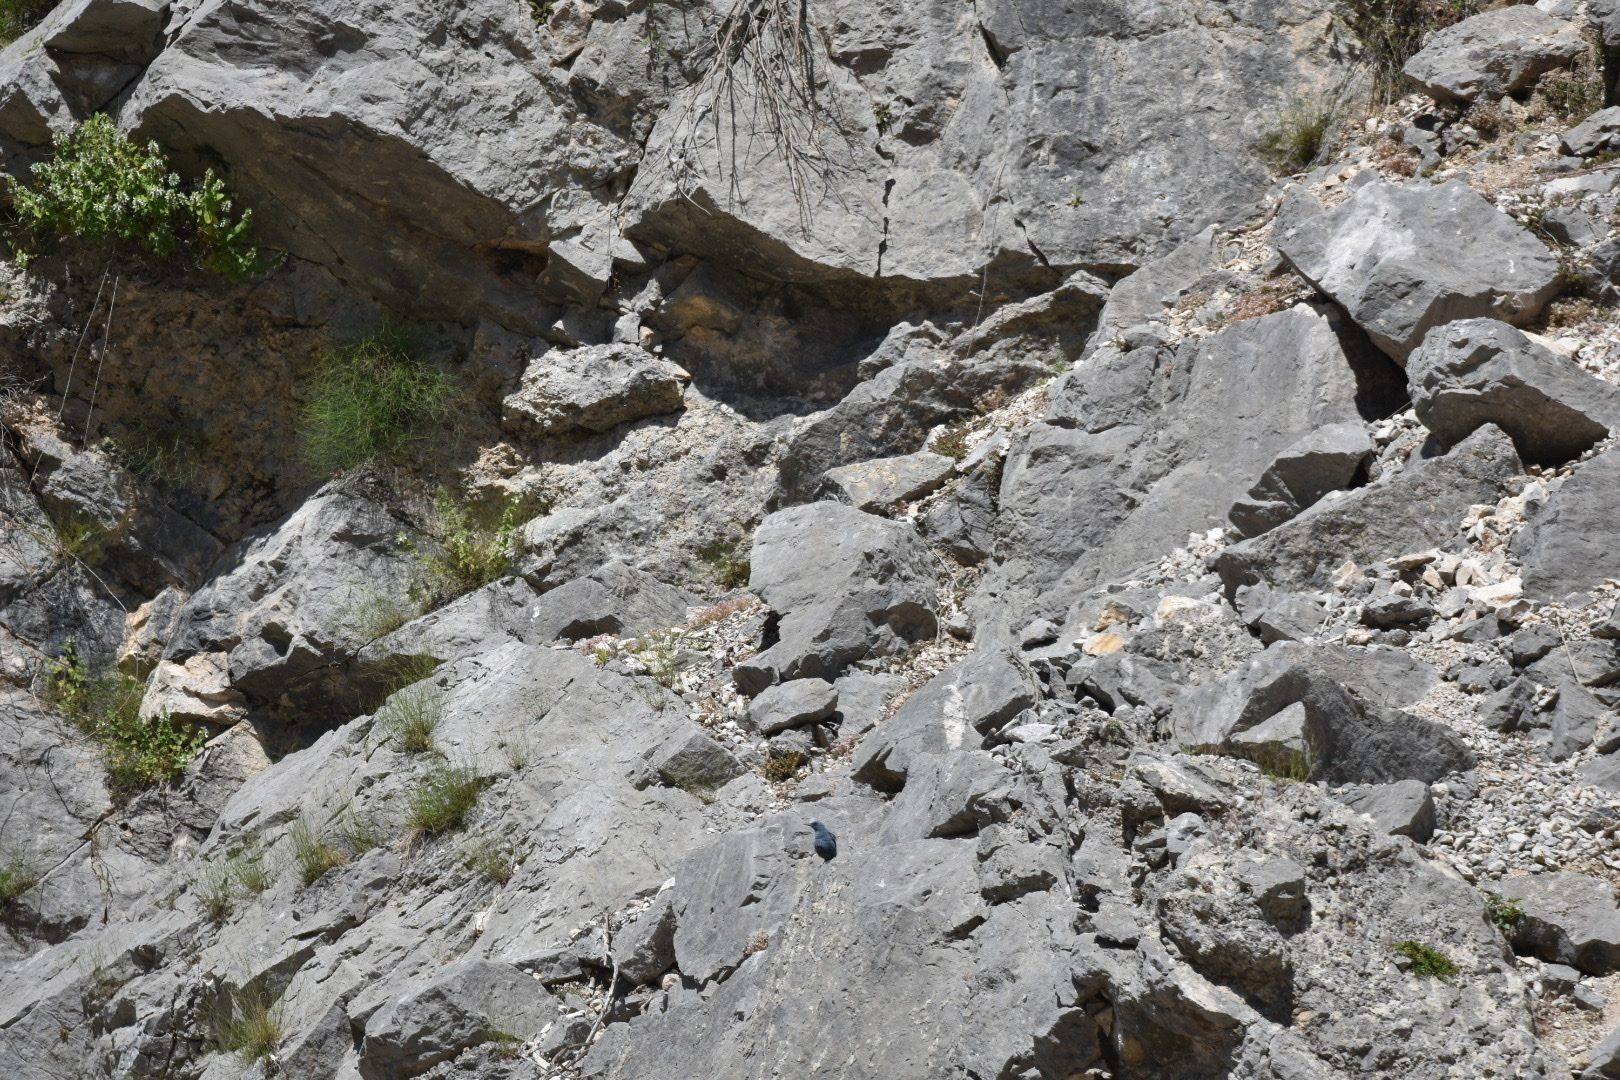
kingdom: Animalia
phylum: Chordata
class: Aves
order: Passeriformes
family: Muscicapidae
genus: Monticola
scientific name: Monticola solitarius
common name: Blue rock thrush
